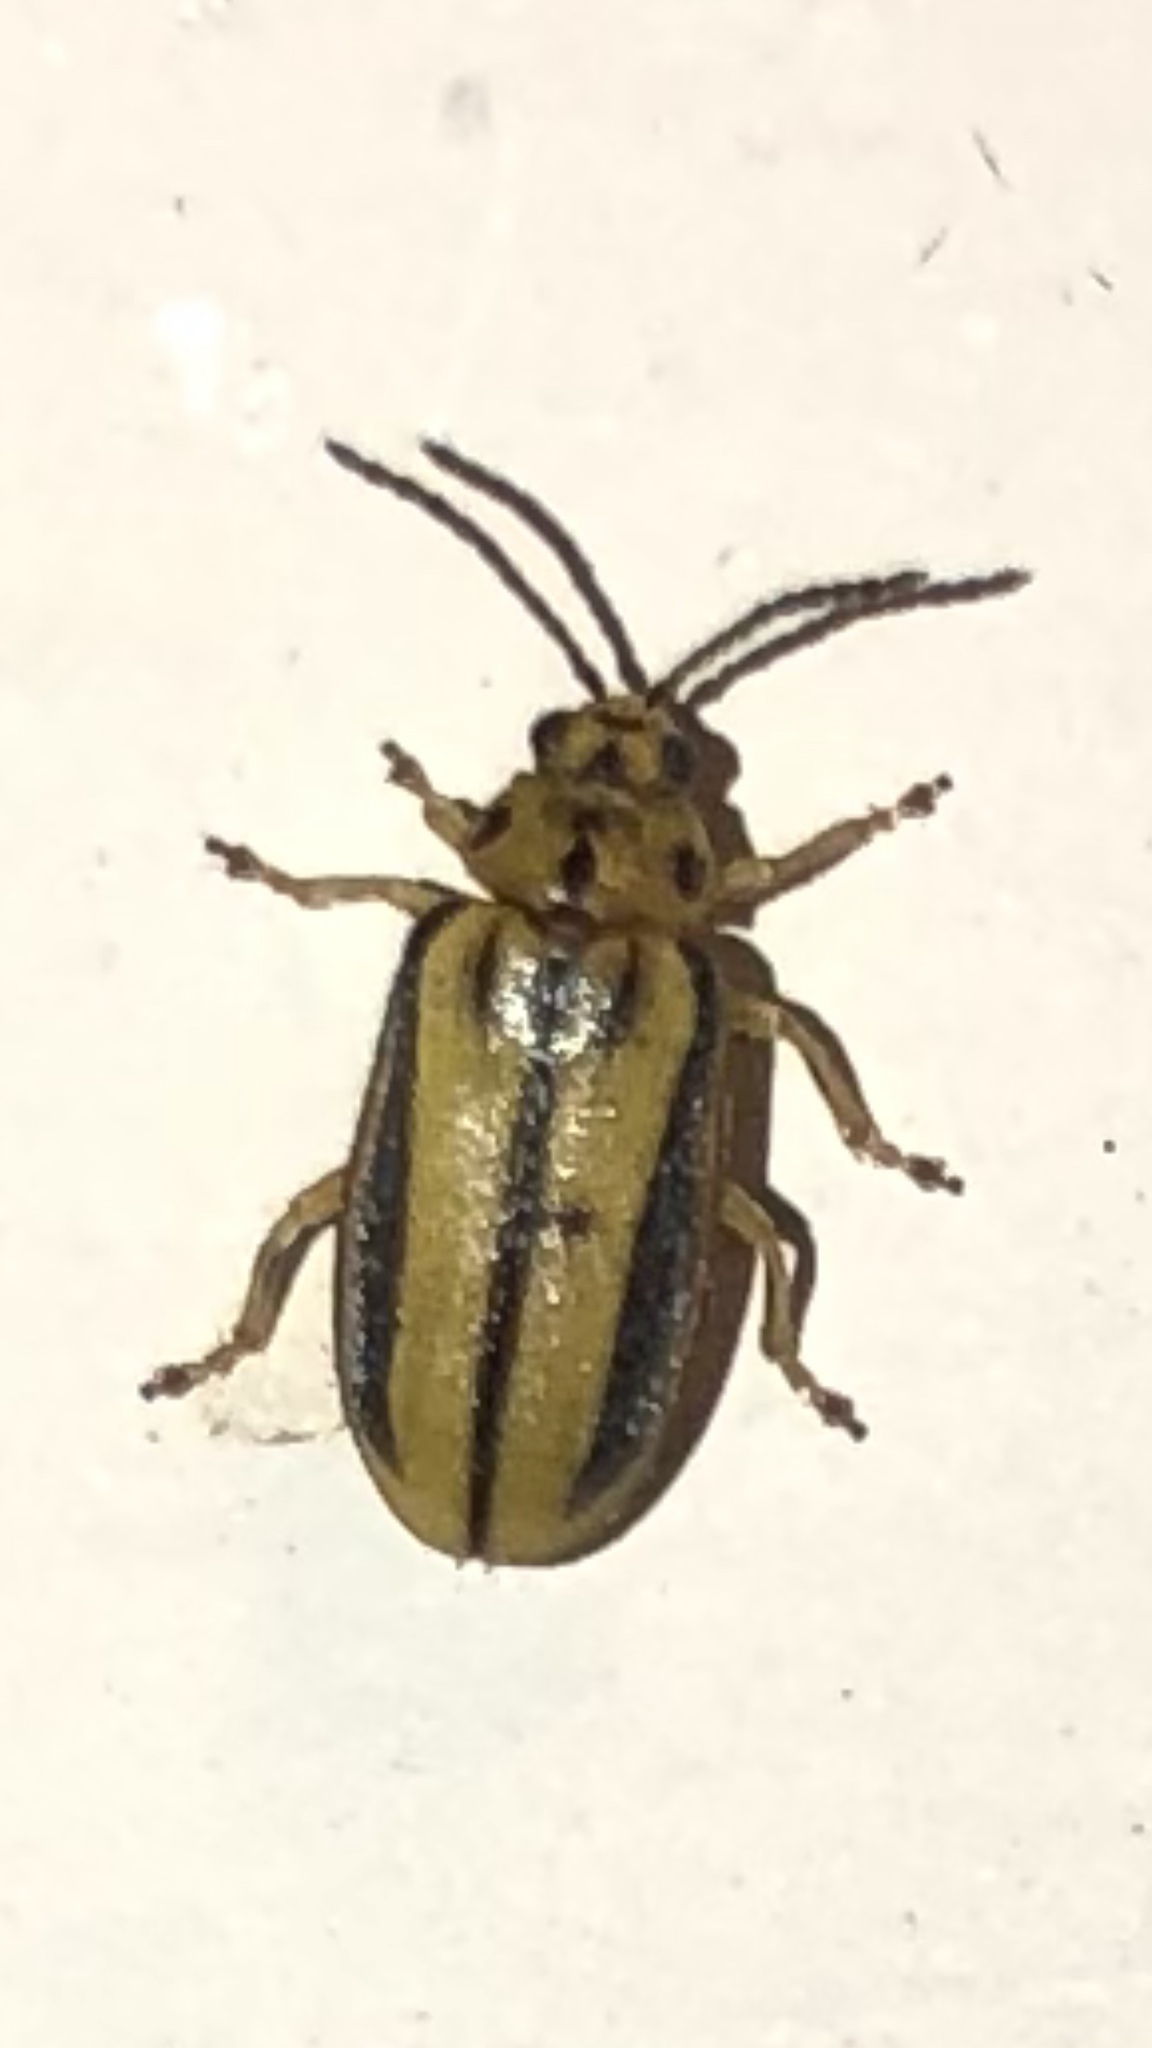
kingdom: Animalia
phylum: Arthropoda
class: Insecta
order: Coleoptera
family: Chrysomelidae
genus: Xanthogaleruca
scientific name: Xanthogaleruca luteola
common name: Elm leaf beetle
